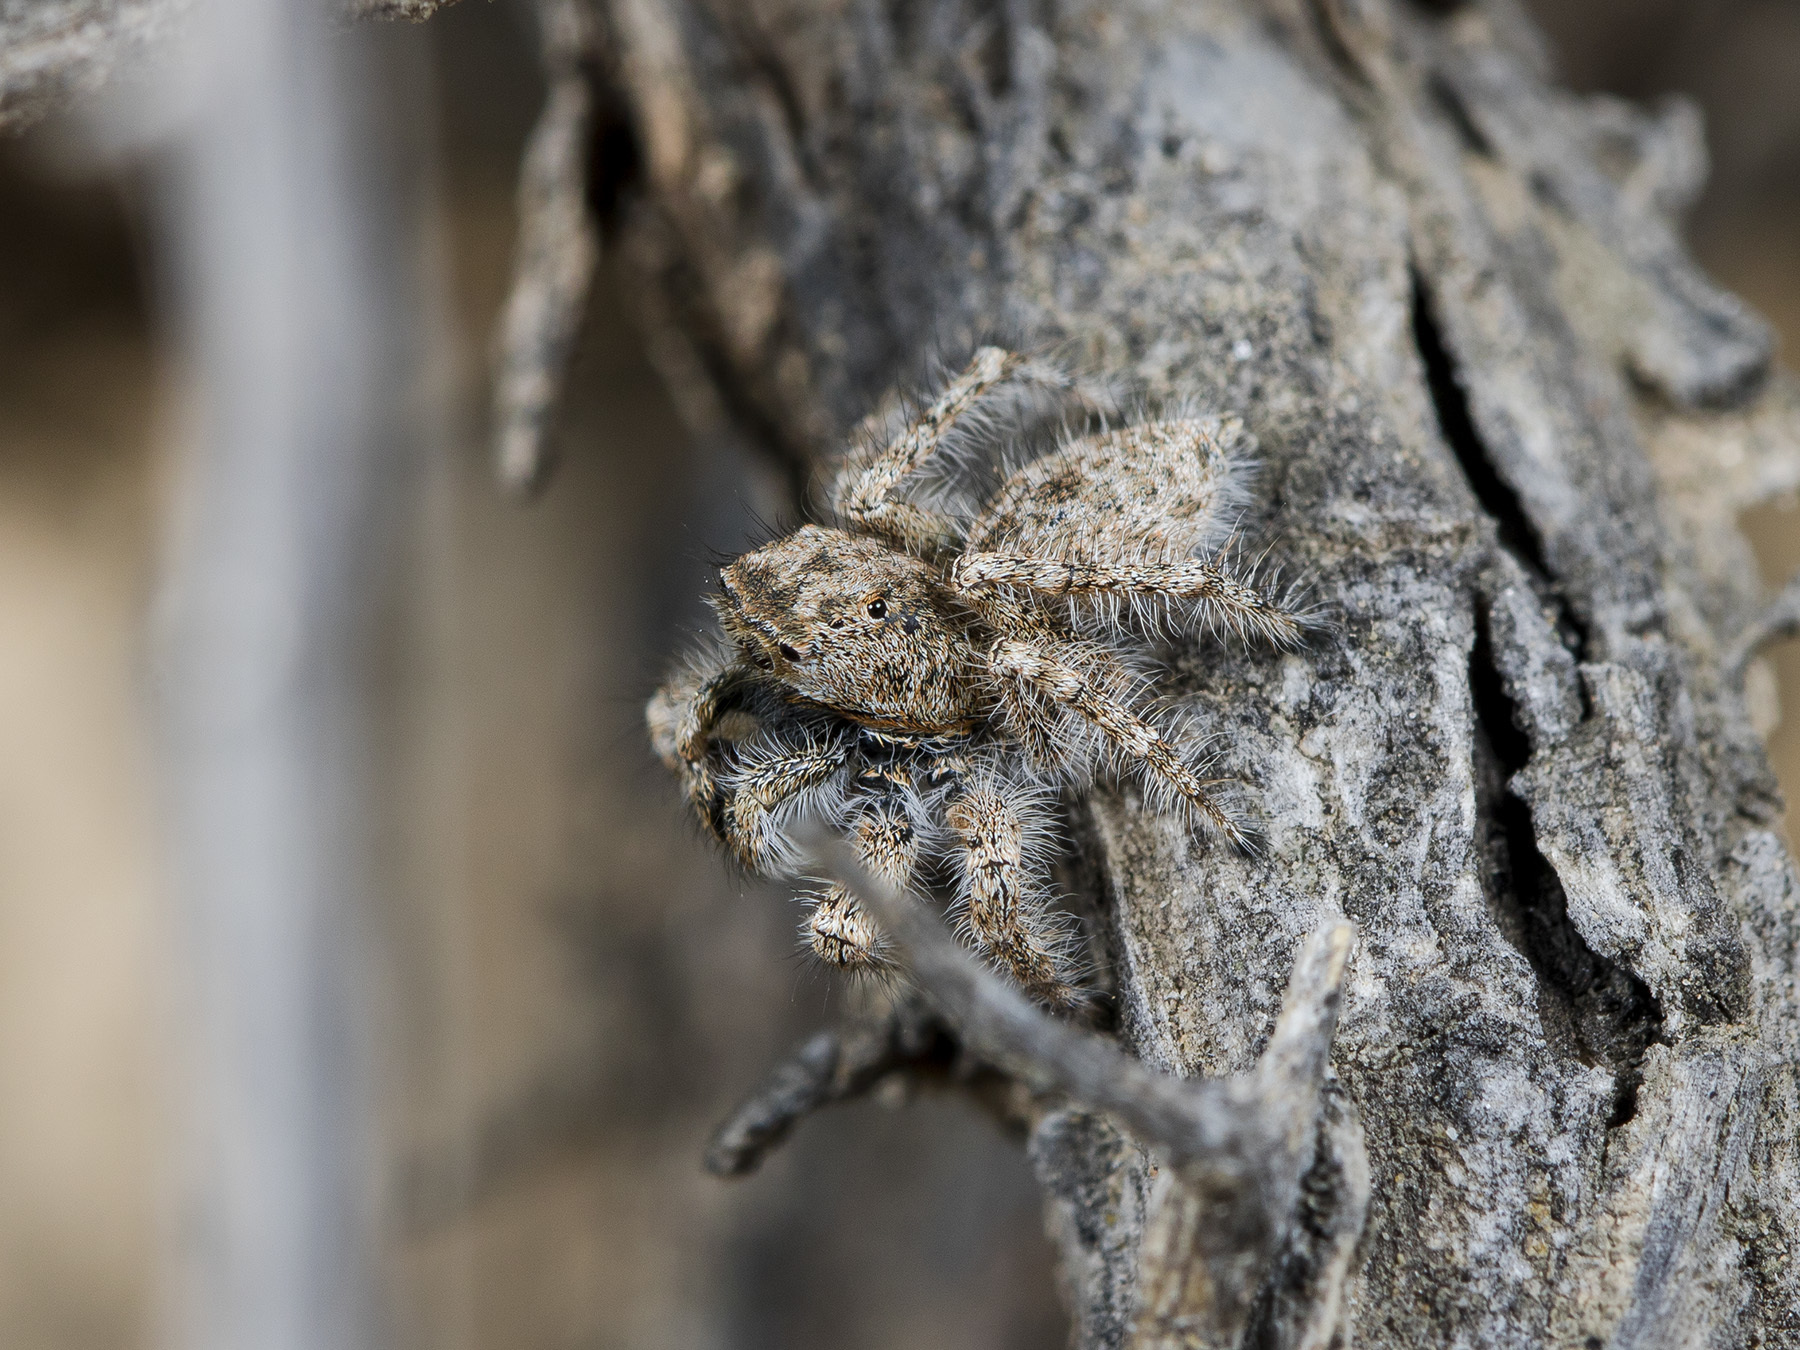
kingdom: Animalia
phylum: Arthropoda
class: Arachnida
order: Araneae
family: Salticidae
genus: Marusyllus
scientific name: Marusyllus coreanus
